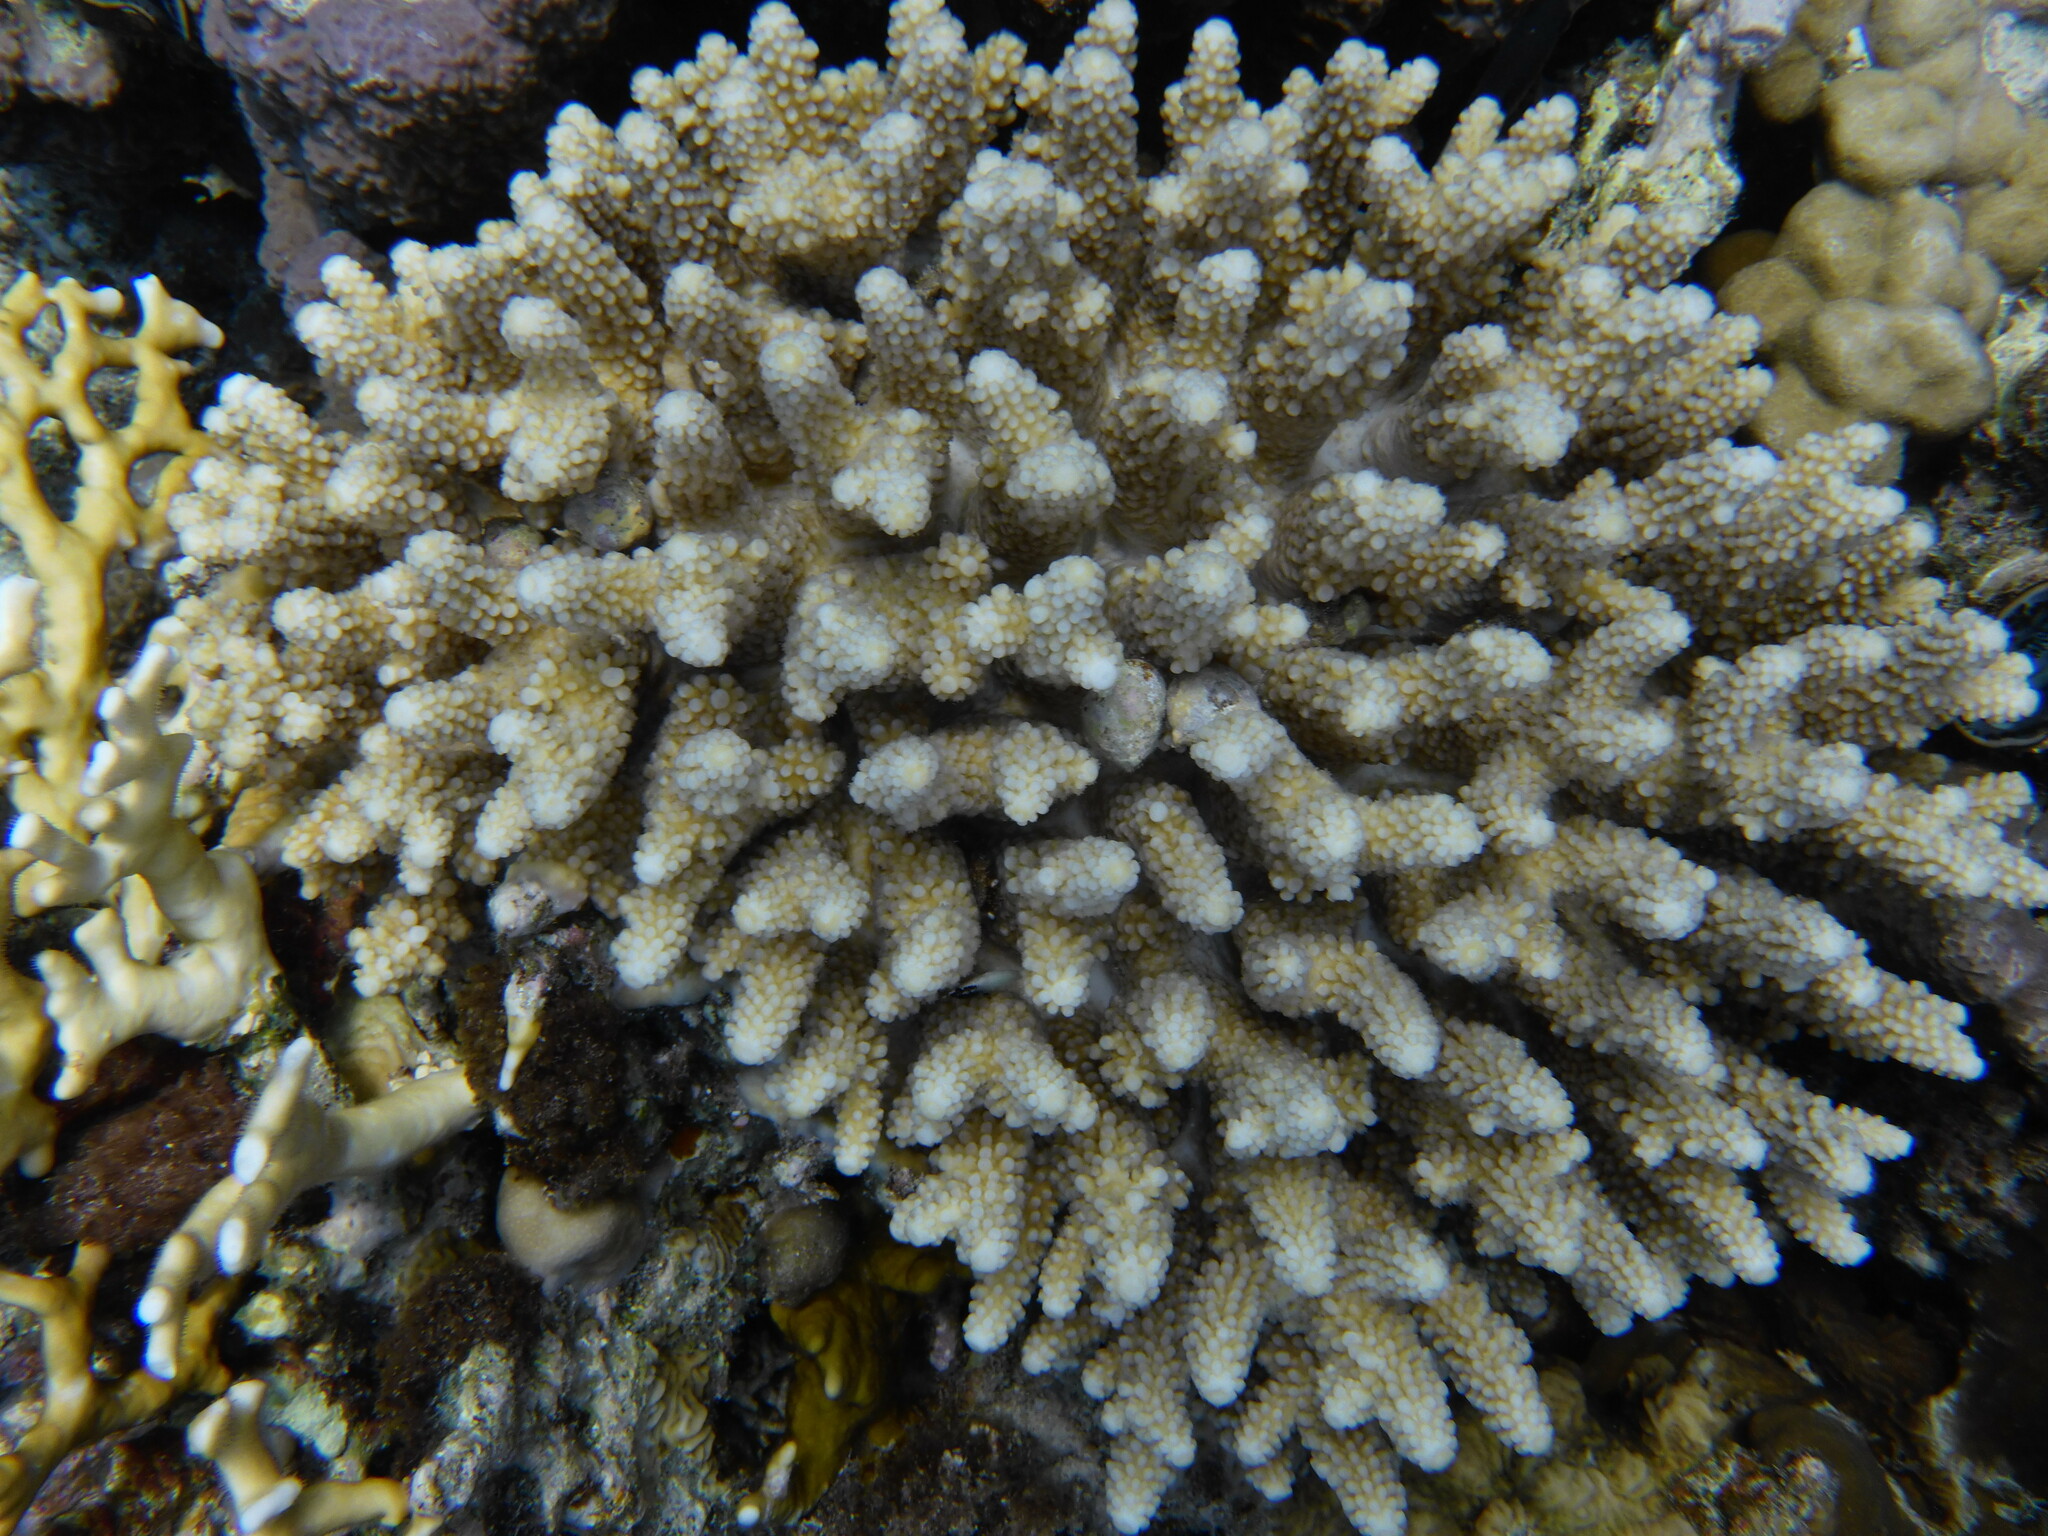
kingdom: Animalia
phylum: Cnidaria
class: Anthozoa
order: Scleractinia
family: Acroporidae
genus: Acropora
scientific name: Acropora gemmifera
